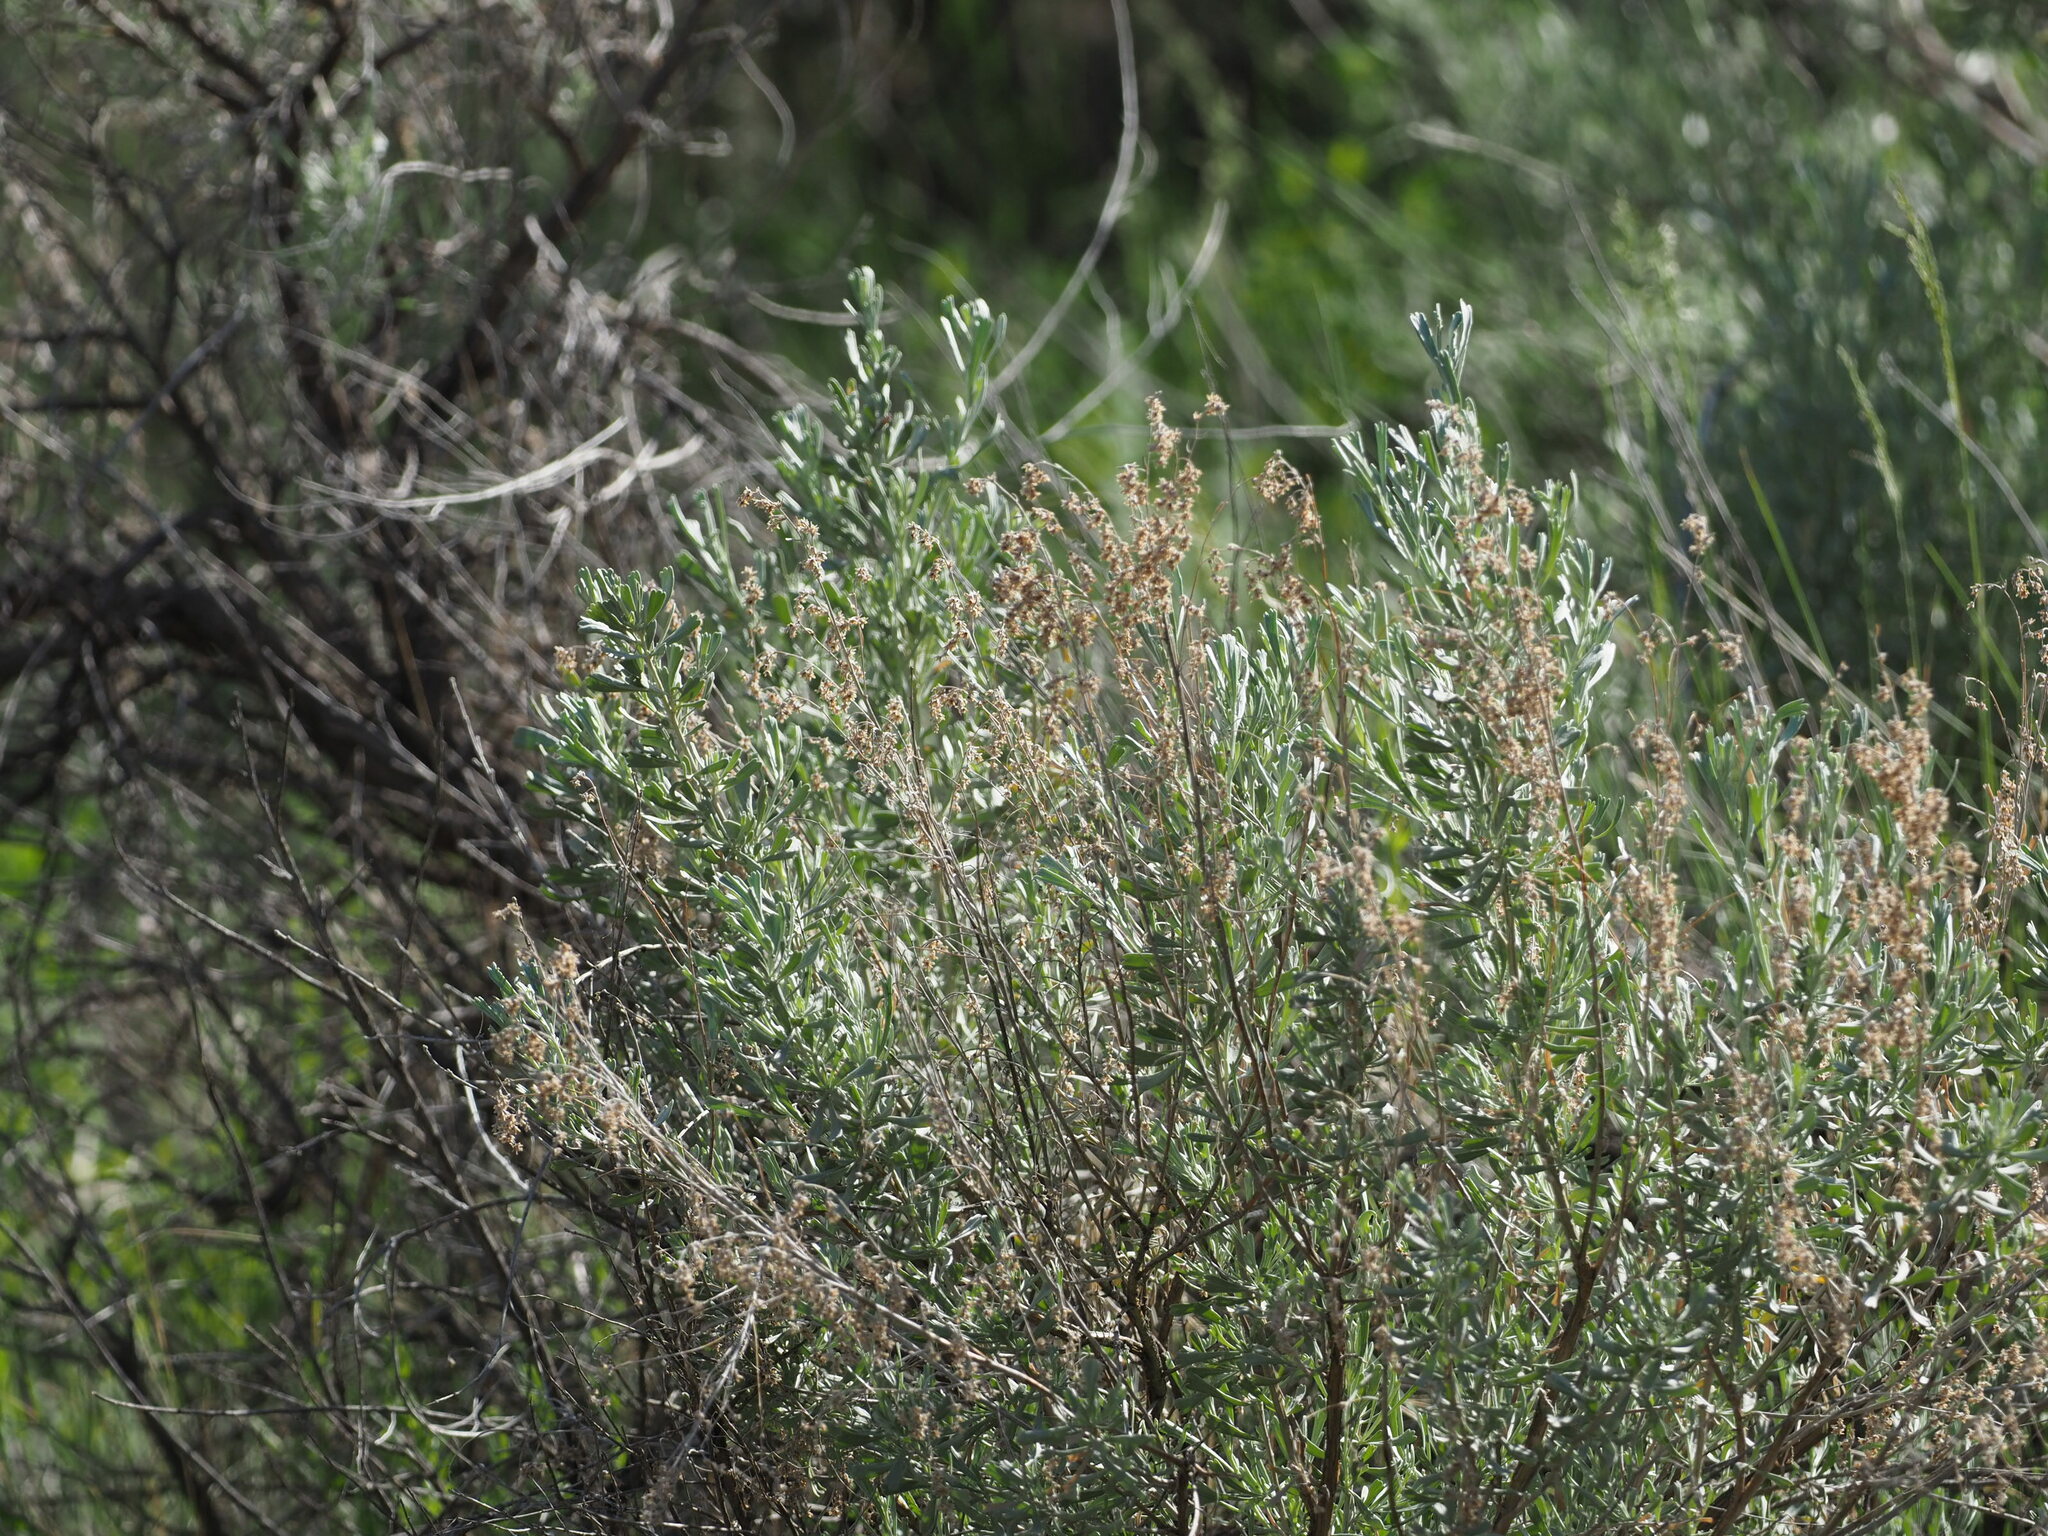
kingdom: Plantae
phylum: Tracheophyta
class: Magnoliopsida
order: Asterales
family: Asteraceae
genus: Artemisia
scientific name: Artemisia tridentata
